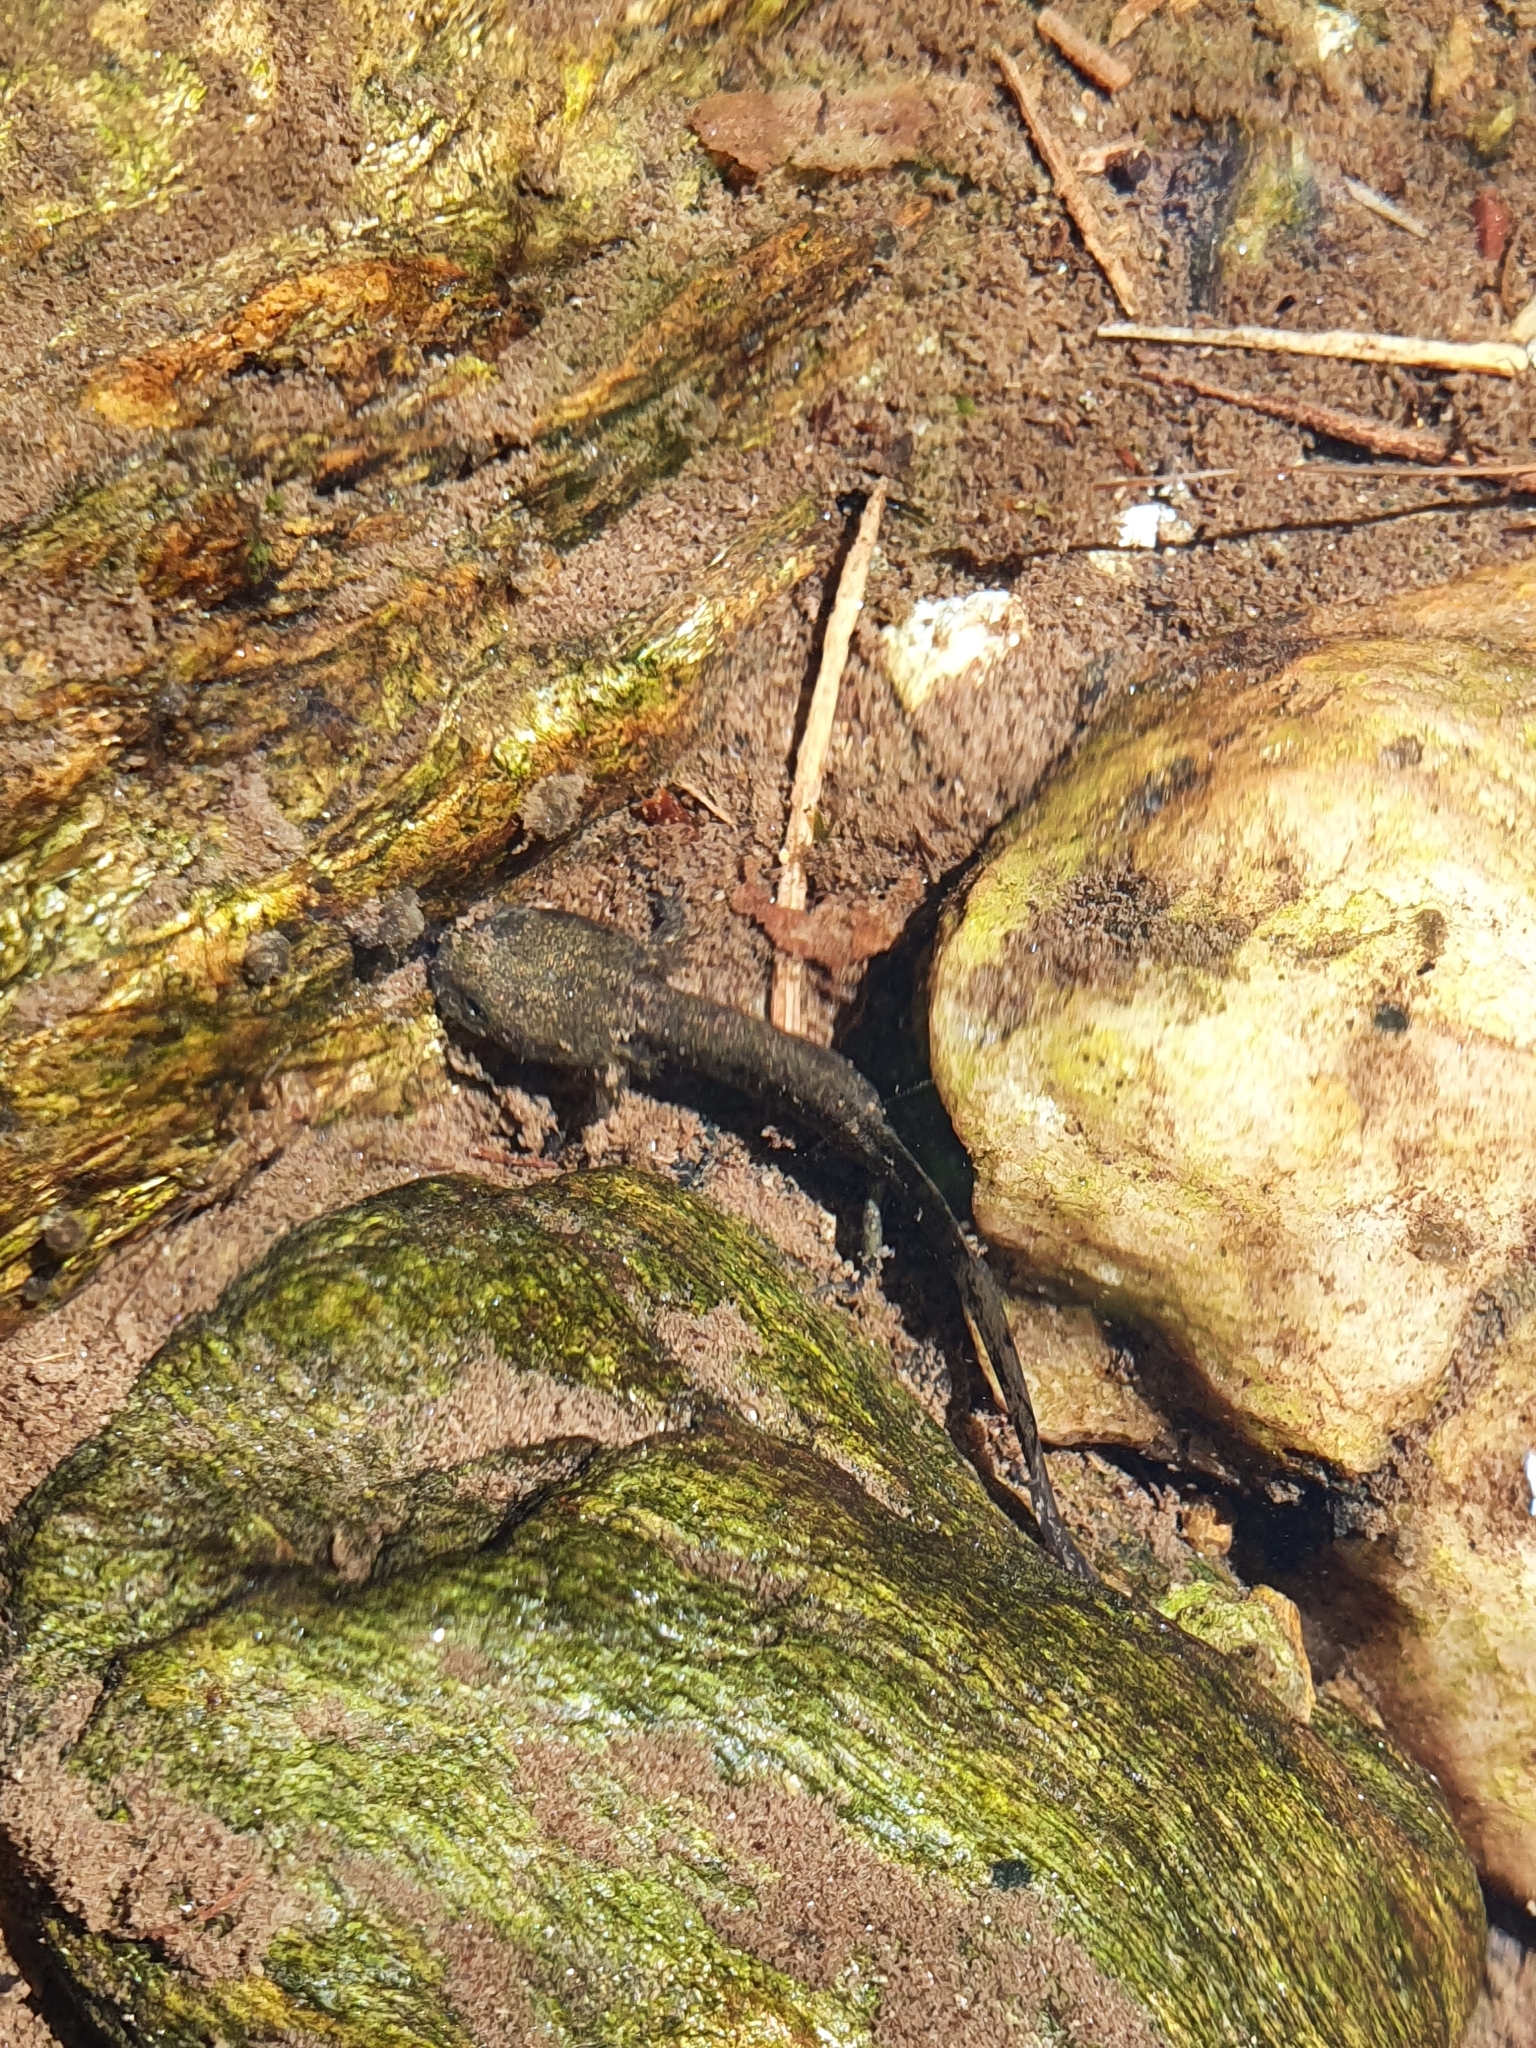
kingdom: Animalia
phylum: Chordata
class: Amphibia
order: Caudata
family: Salamandridae
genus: Salamandra
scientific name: Salamandra salamandra
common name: Fire salamander
